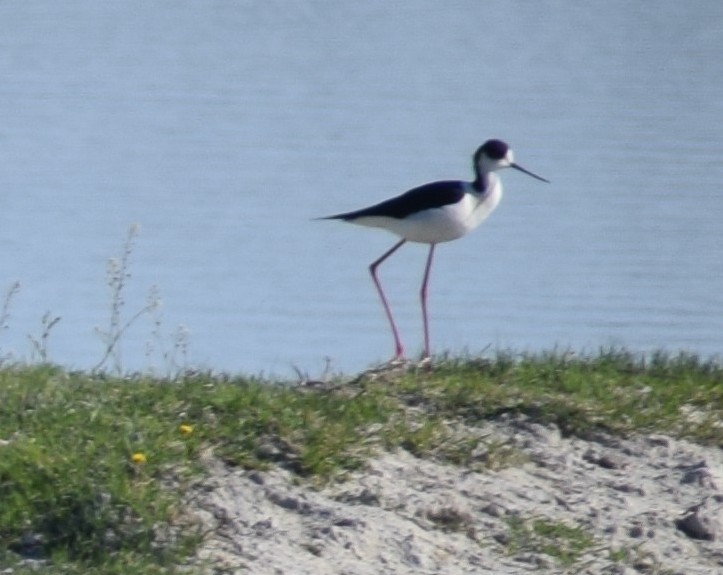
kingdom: Animalia
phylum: Chordata
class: Aves
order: Charadriiformes
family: Recurvirostridae
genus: Himantopus
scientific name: Himantopus himantopus
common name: Black-winged stilt
